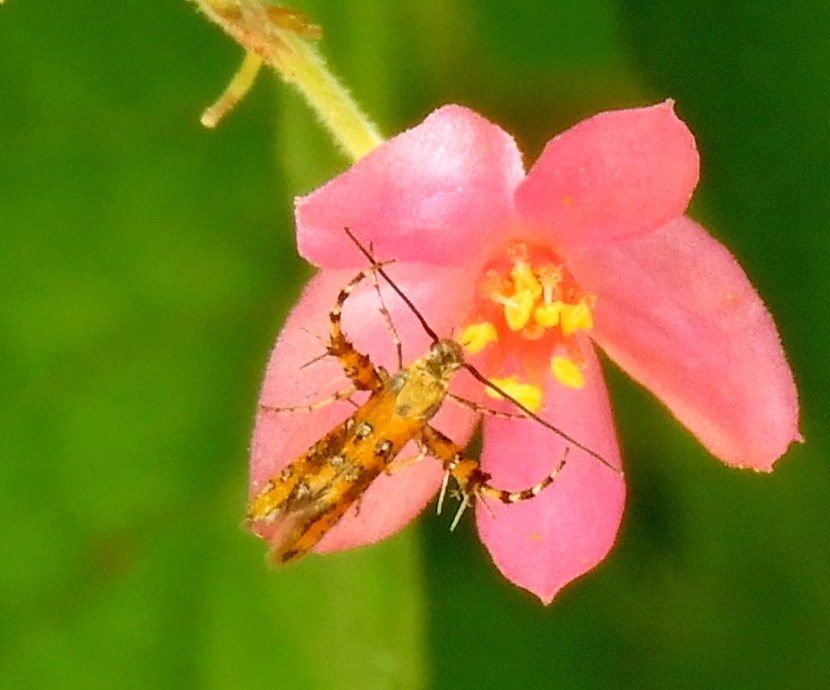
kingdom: Animalia
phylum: Arthropoda
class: Insecta
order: Lepidoptera
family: Heliodinidae
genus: Heliodines
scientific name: Heliodines
